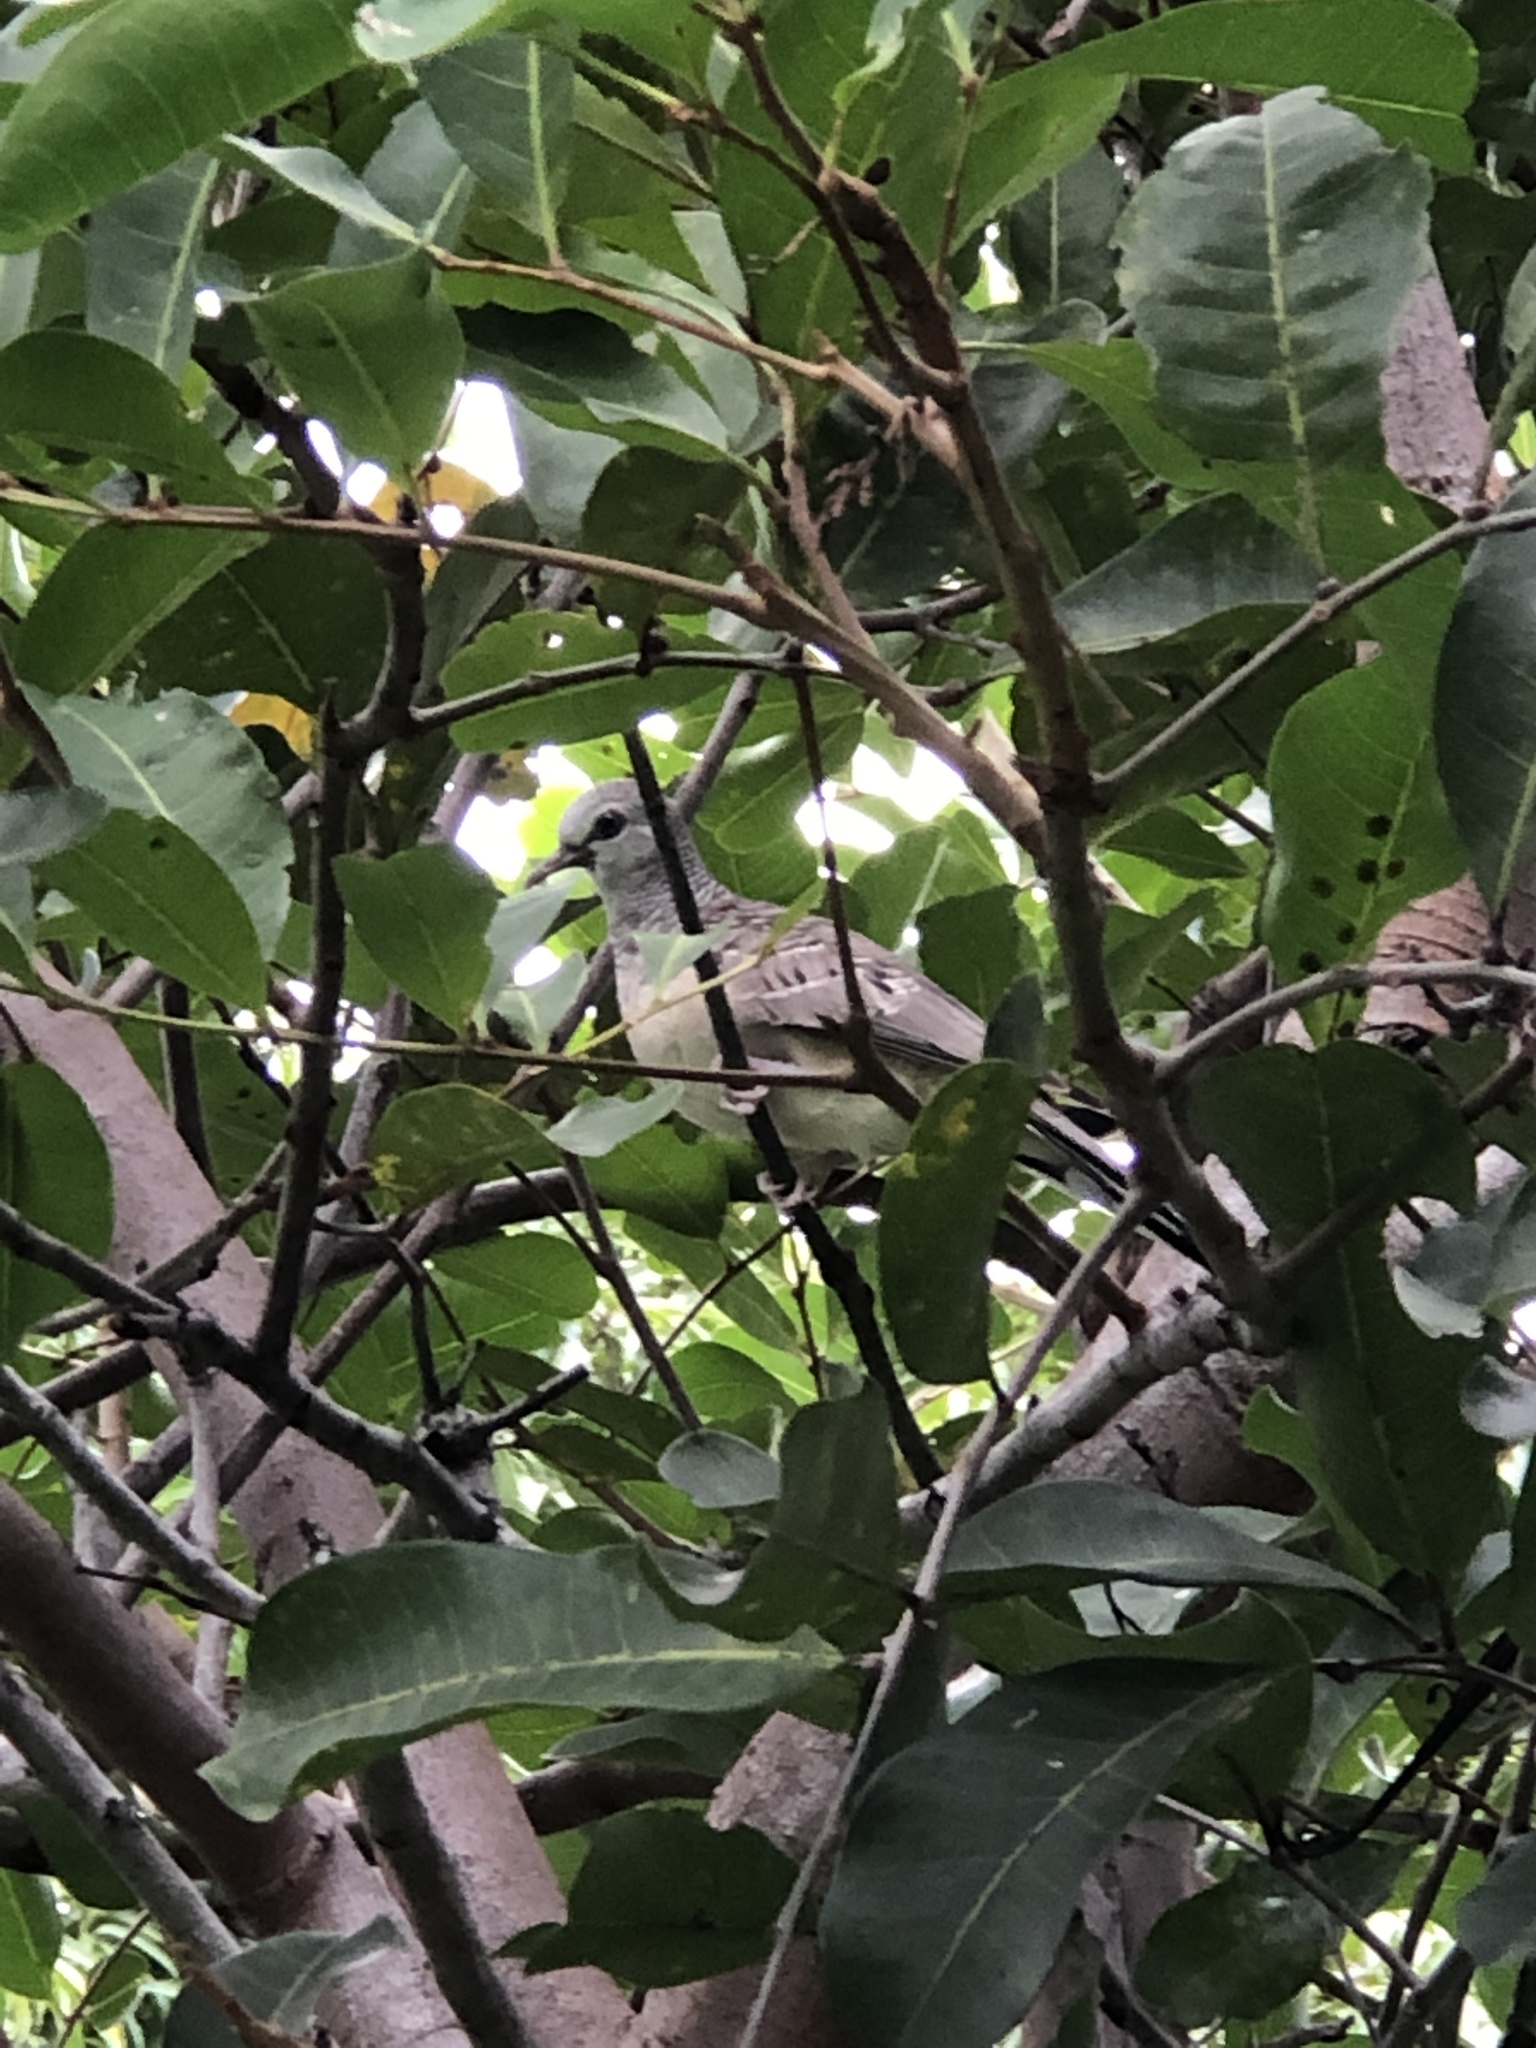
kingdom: Animalia
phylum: Chordata
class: Aves
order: Columbiformes
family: Columbidae
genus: Geopelia
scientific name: Geopelia placida
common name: Peaceful dove
